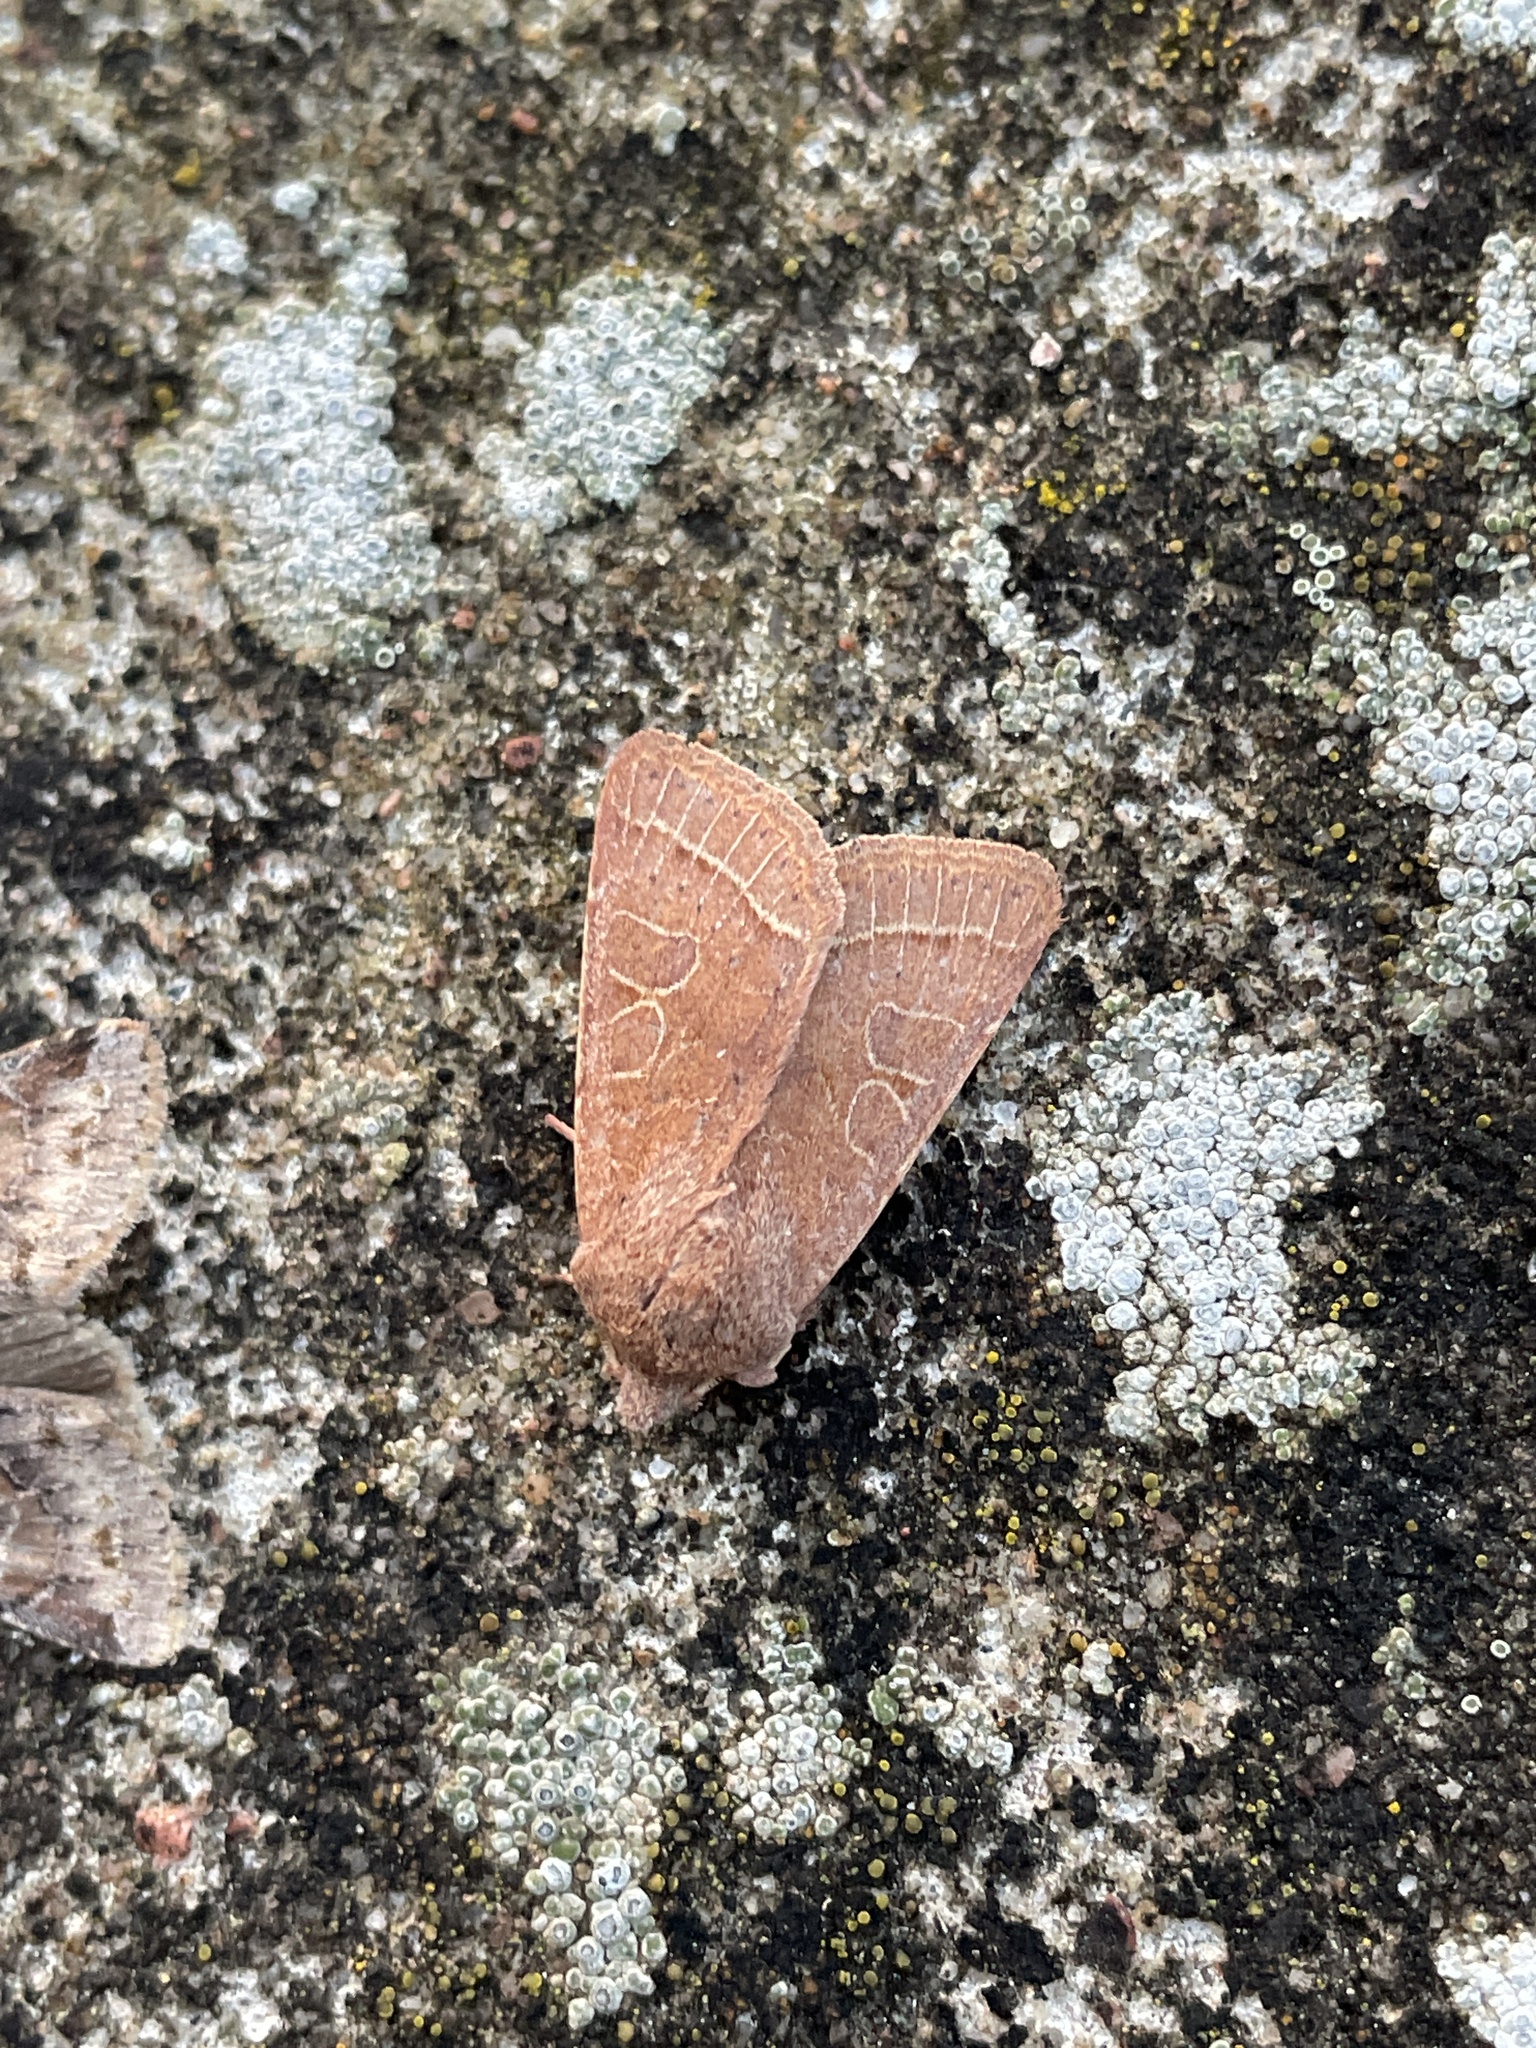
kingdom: Animalia
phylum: Arthropoda
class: Insecta
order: Lepidoptera
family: Noctuidae
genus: Orthosia
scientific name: Orthosia cerasi
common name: Common quaker
